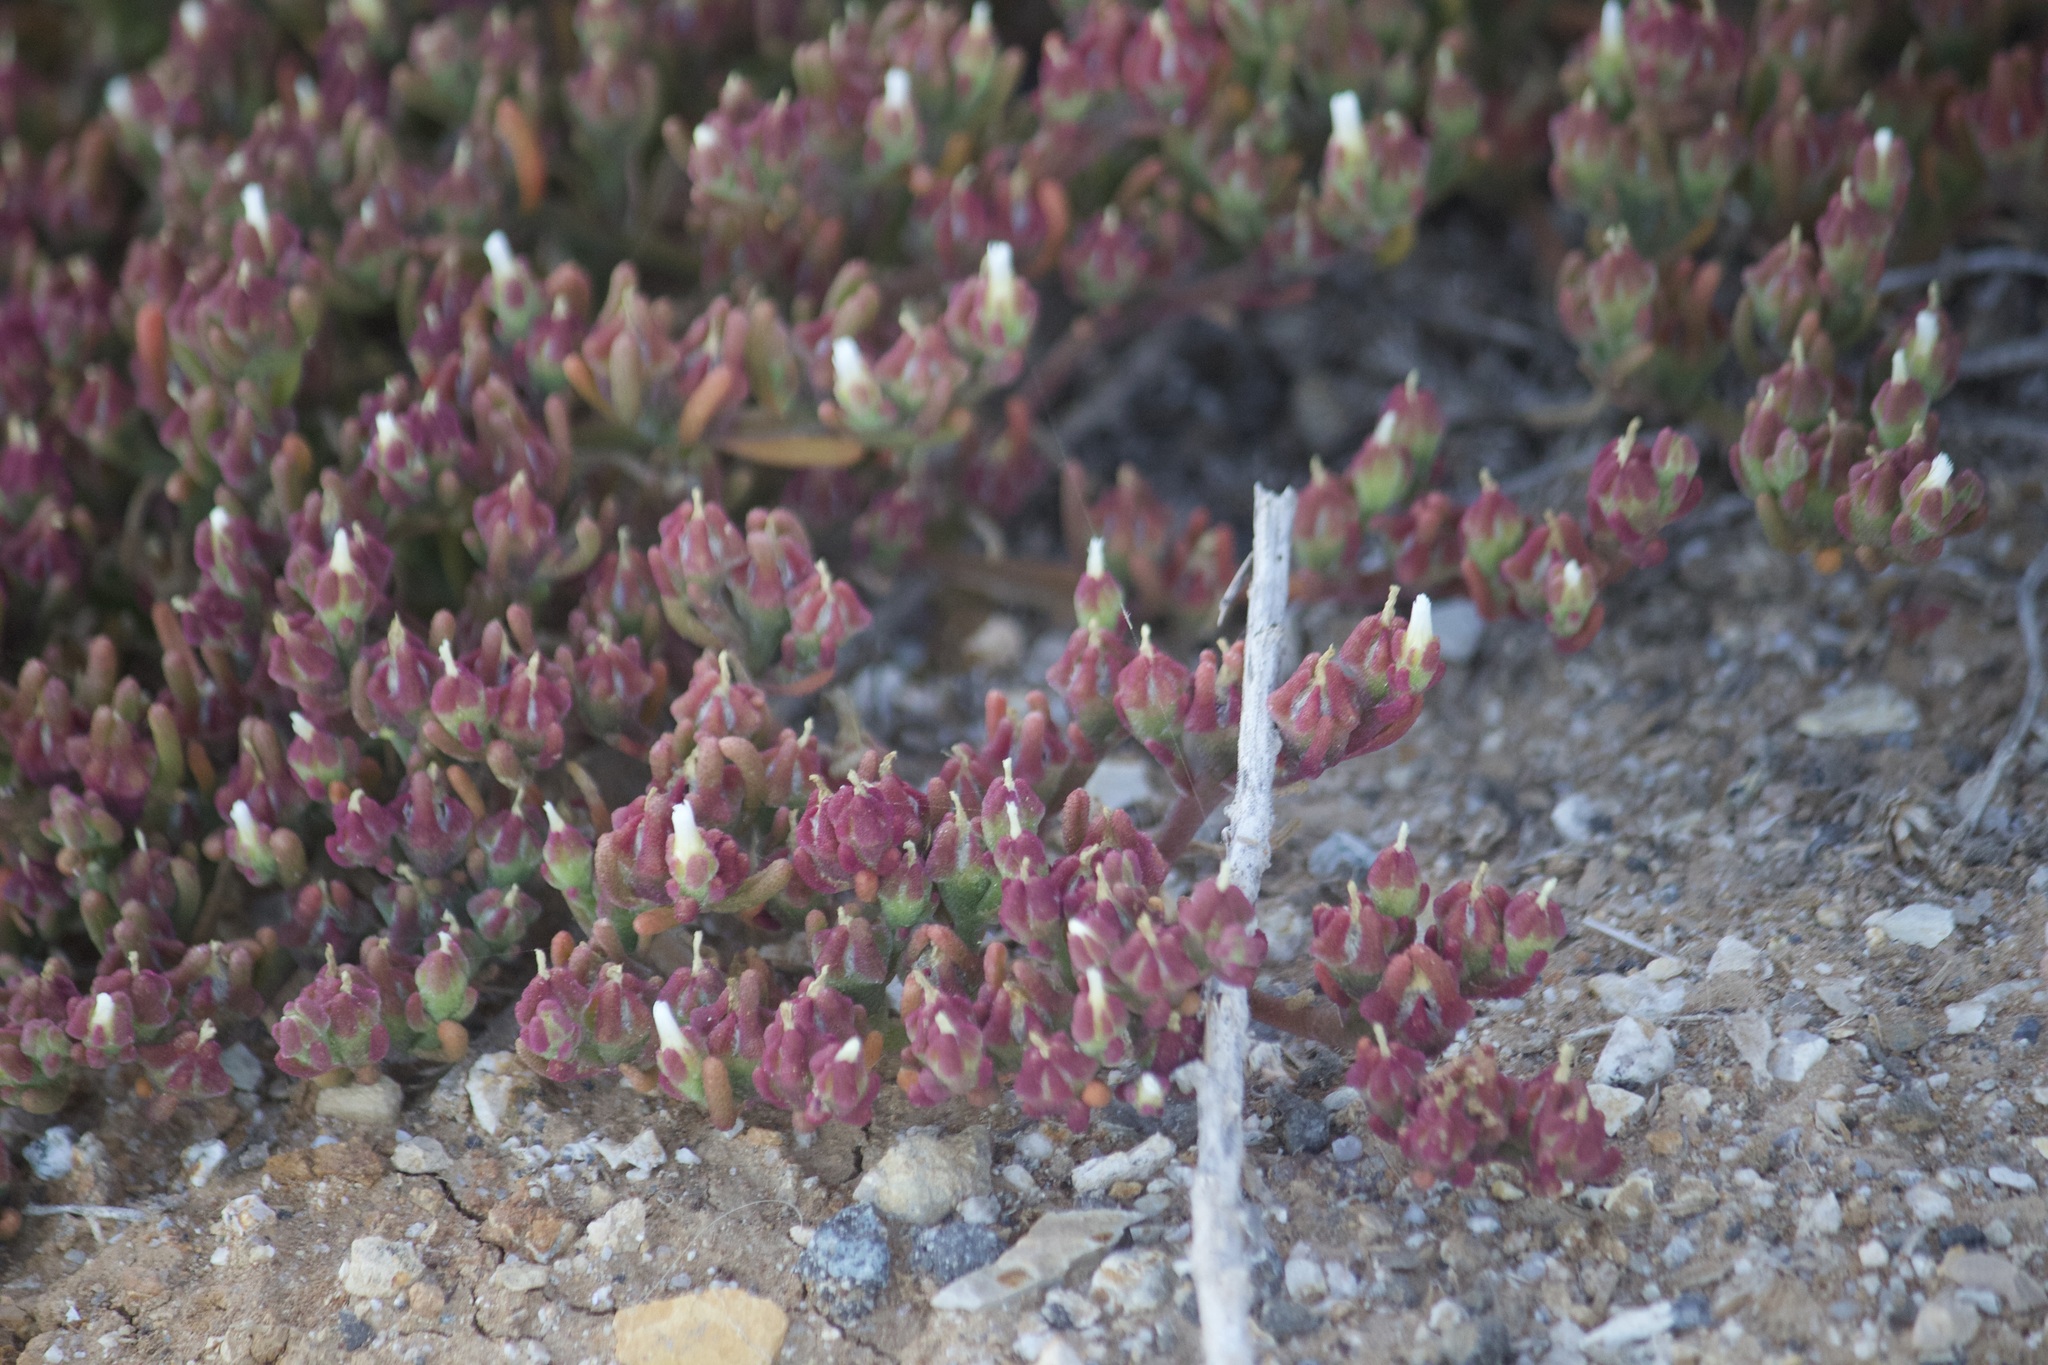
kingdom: Plantae
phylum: Tracheophyta
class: Magnoliopsida
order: Caryophyllales
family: Aizoaceae
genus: Mesembryanthemum
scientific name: Mesembryanthemum nodiflorum
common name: Slenderleaf iceplant
